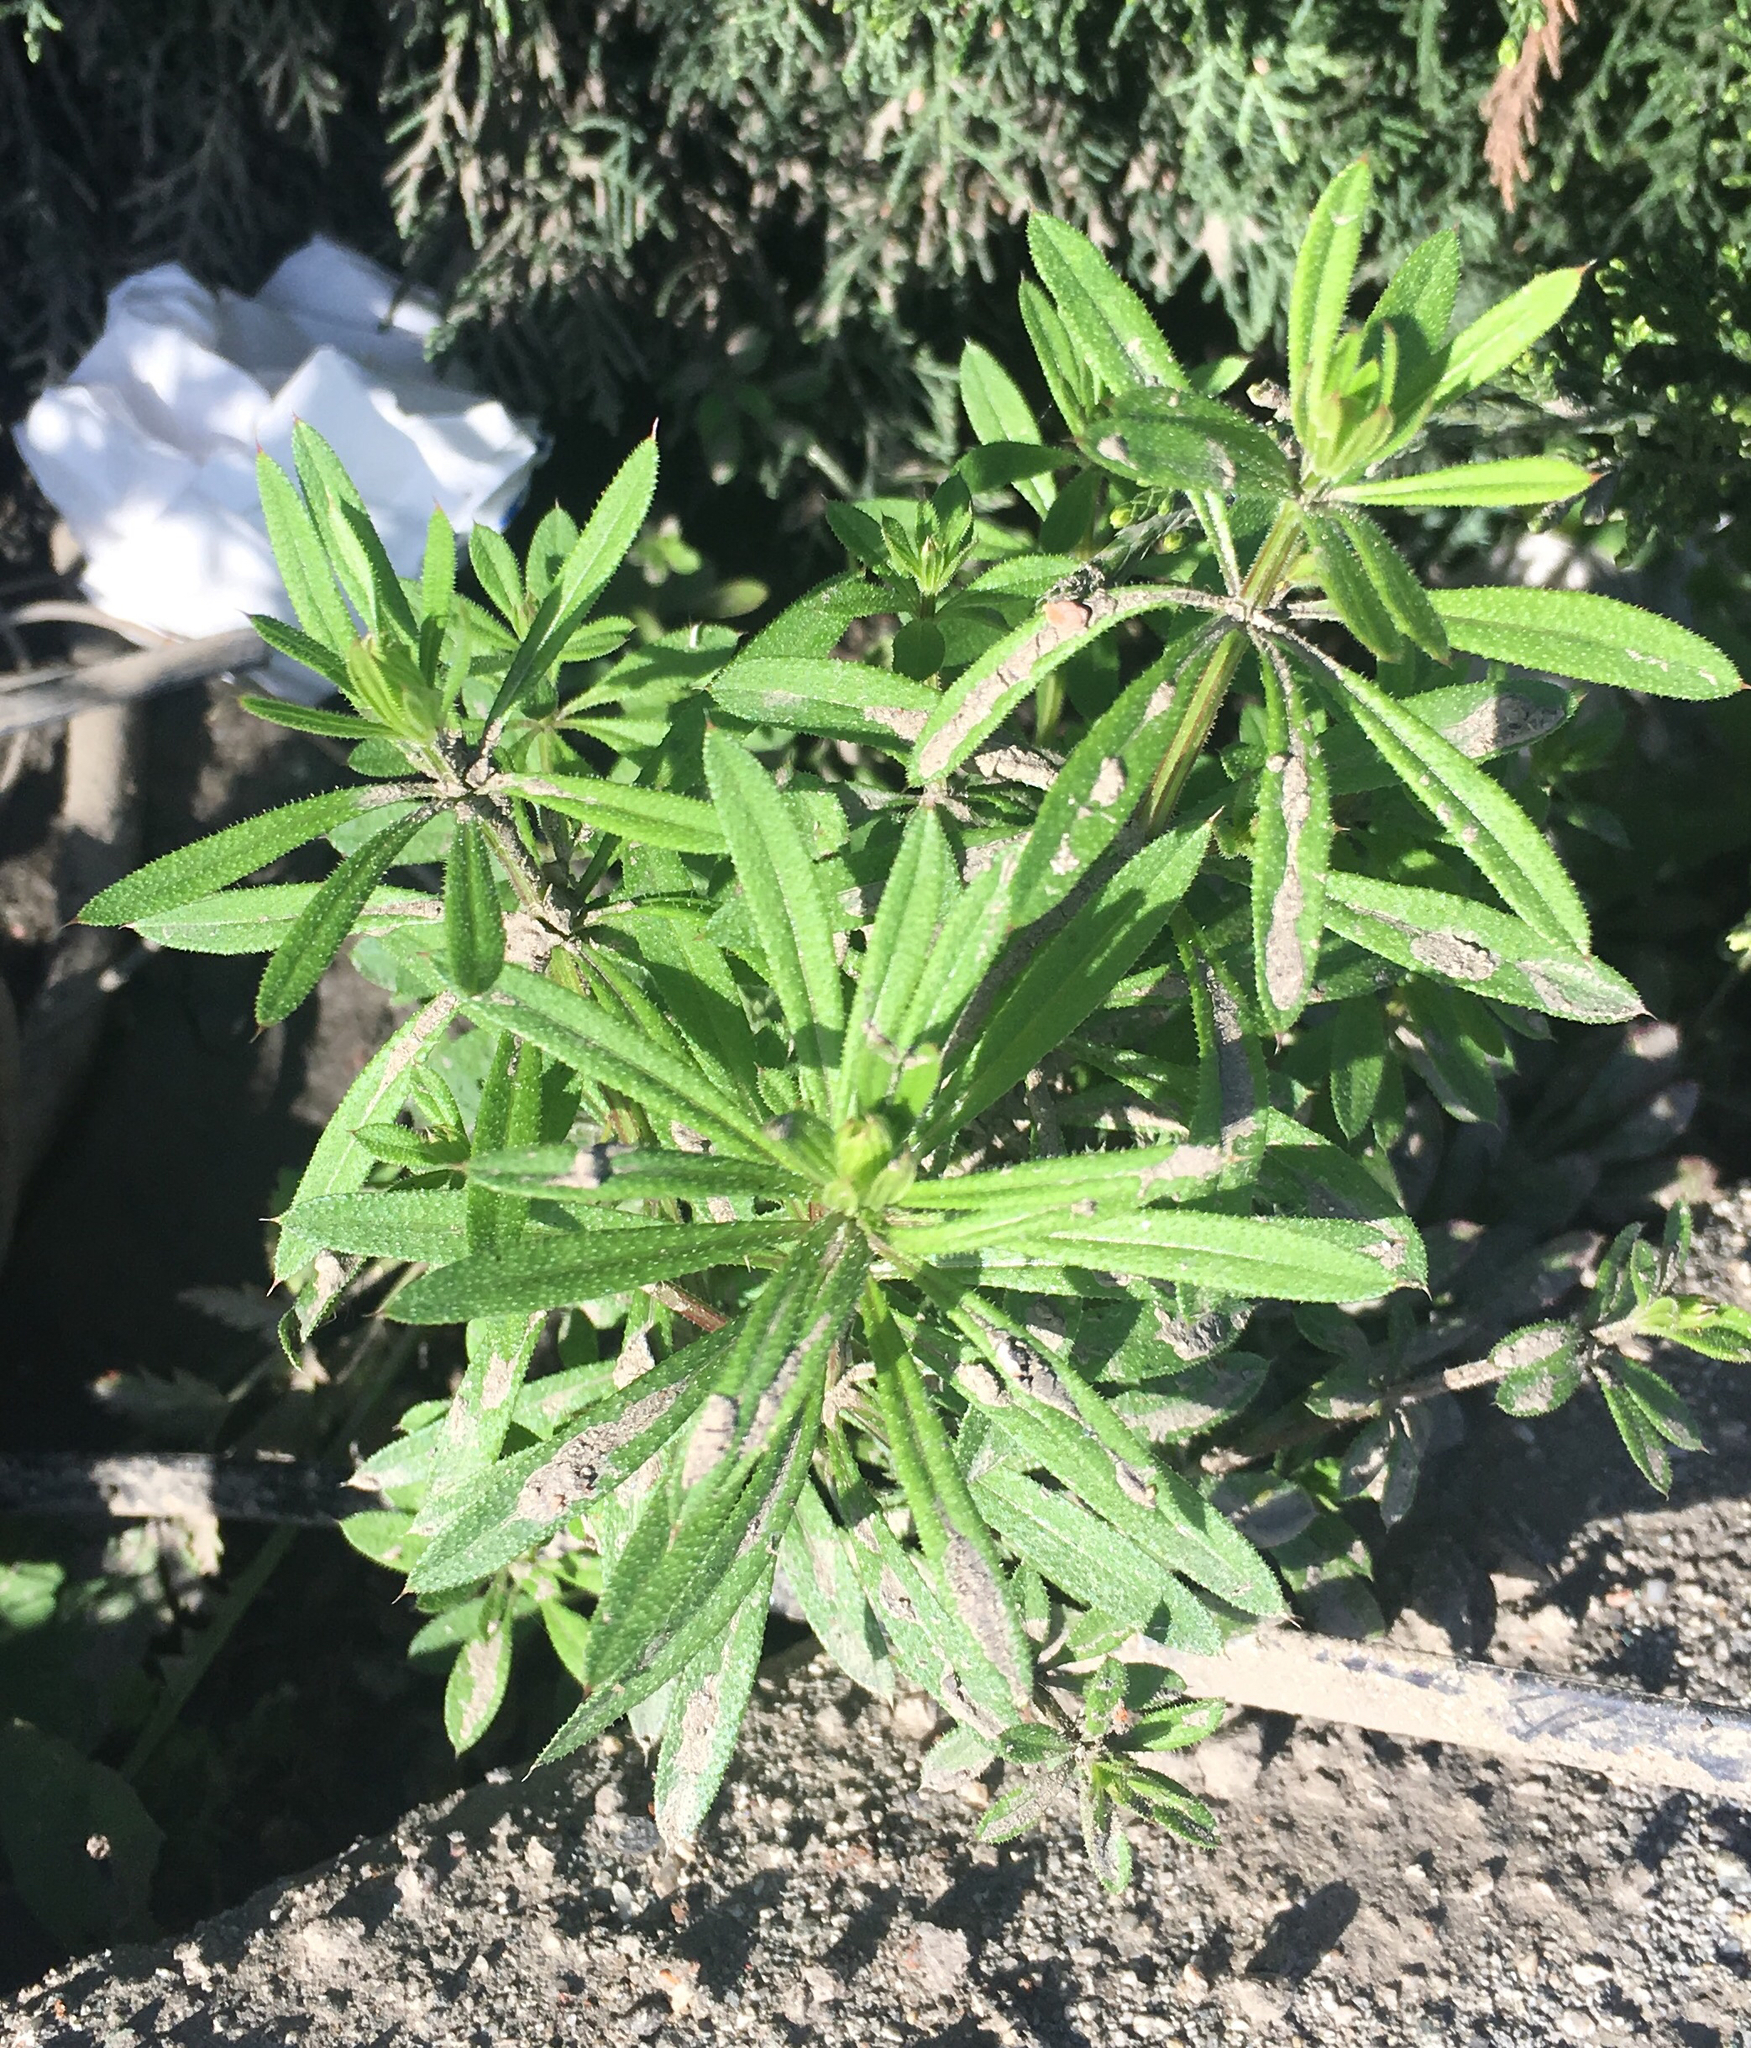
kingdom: Plantae
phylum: Tracheophyta
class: Magnoliopsida
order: Gentianales
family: Rubiaceae
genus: Galium
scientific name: Galium aparine
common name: Cleavers
